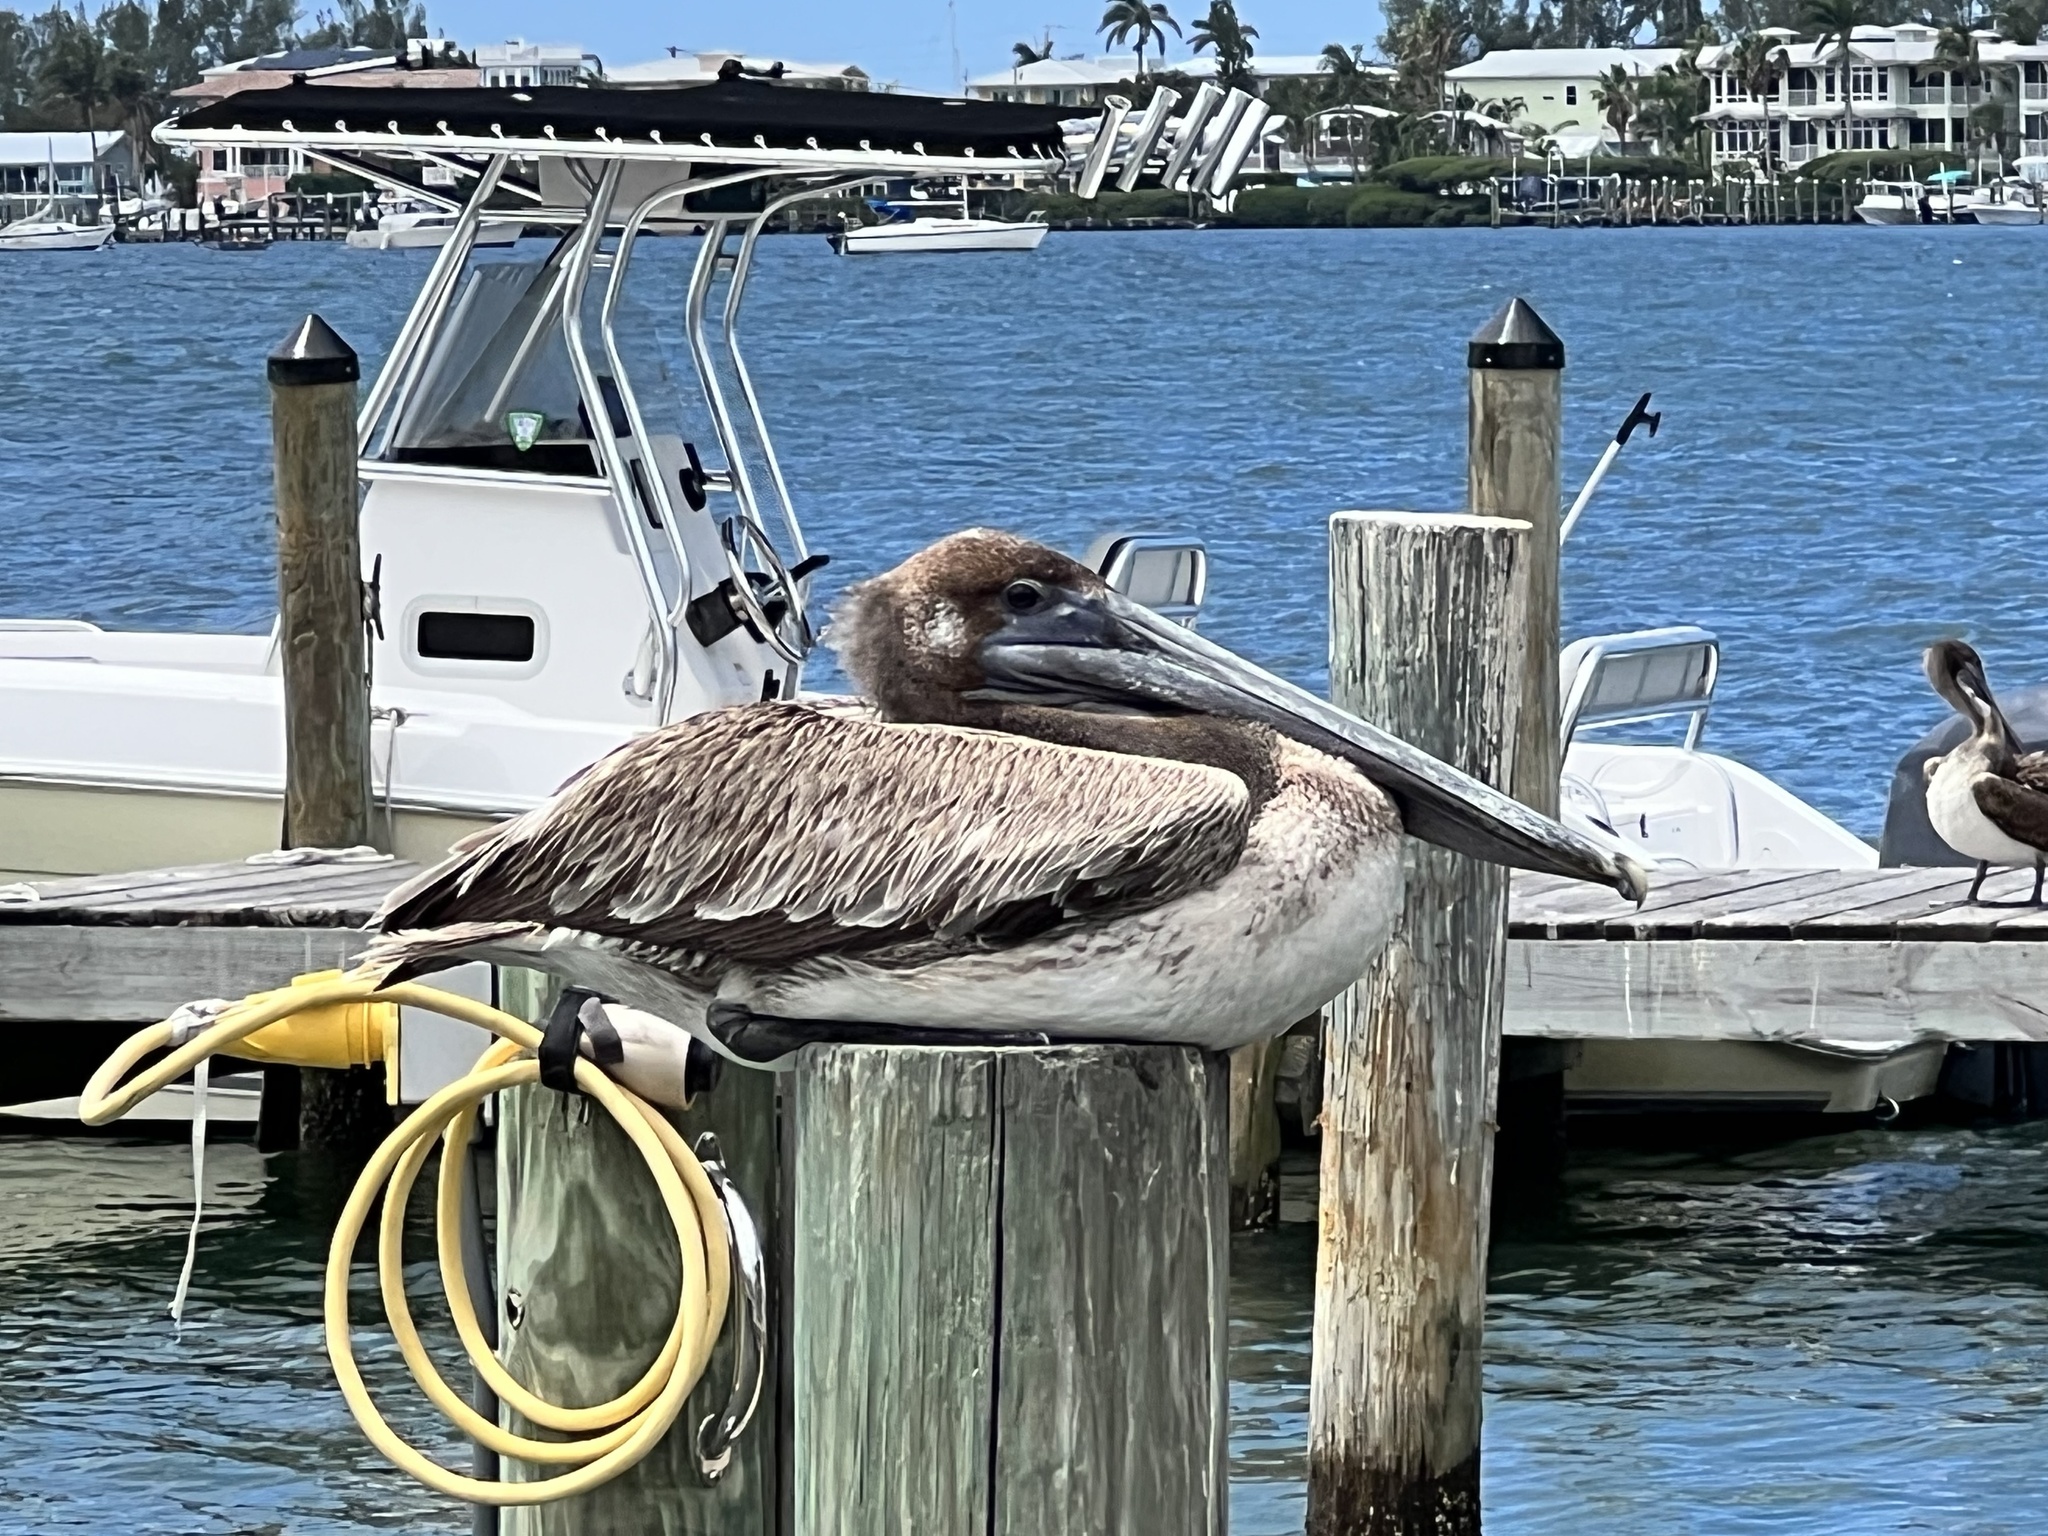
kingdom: Animalia
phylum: Chordata
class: Aves
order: Pelecaniformes
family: Pelecanidae
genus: Pelecanus
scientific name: Pelecanus occidentalis
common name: Brown pelican
